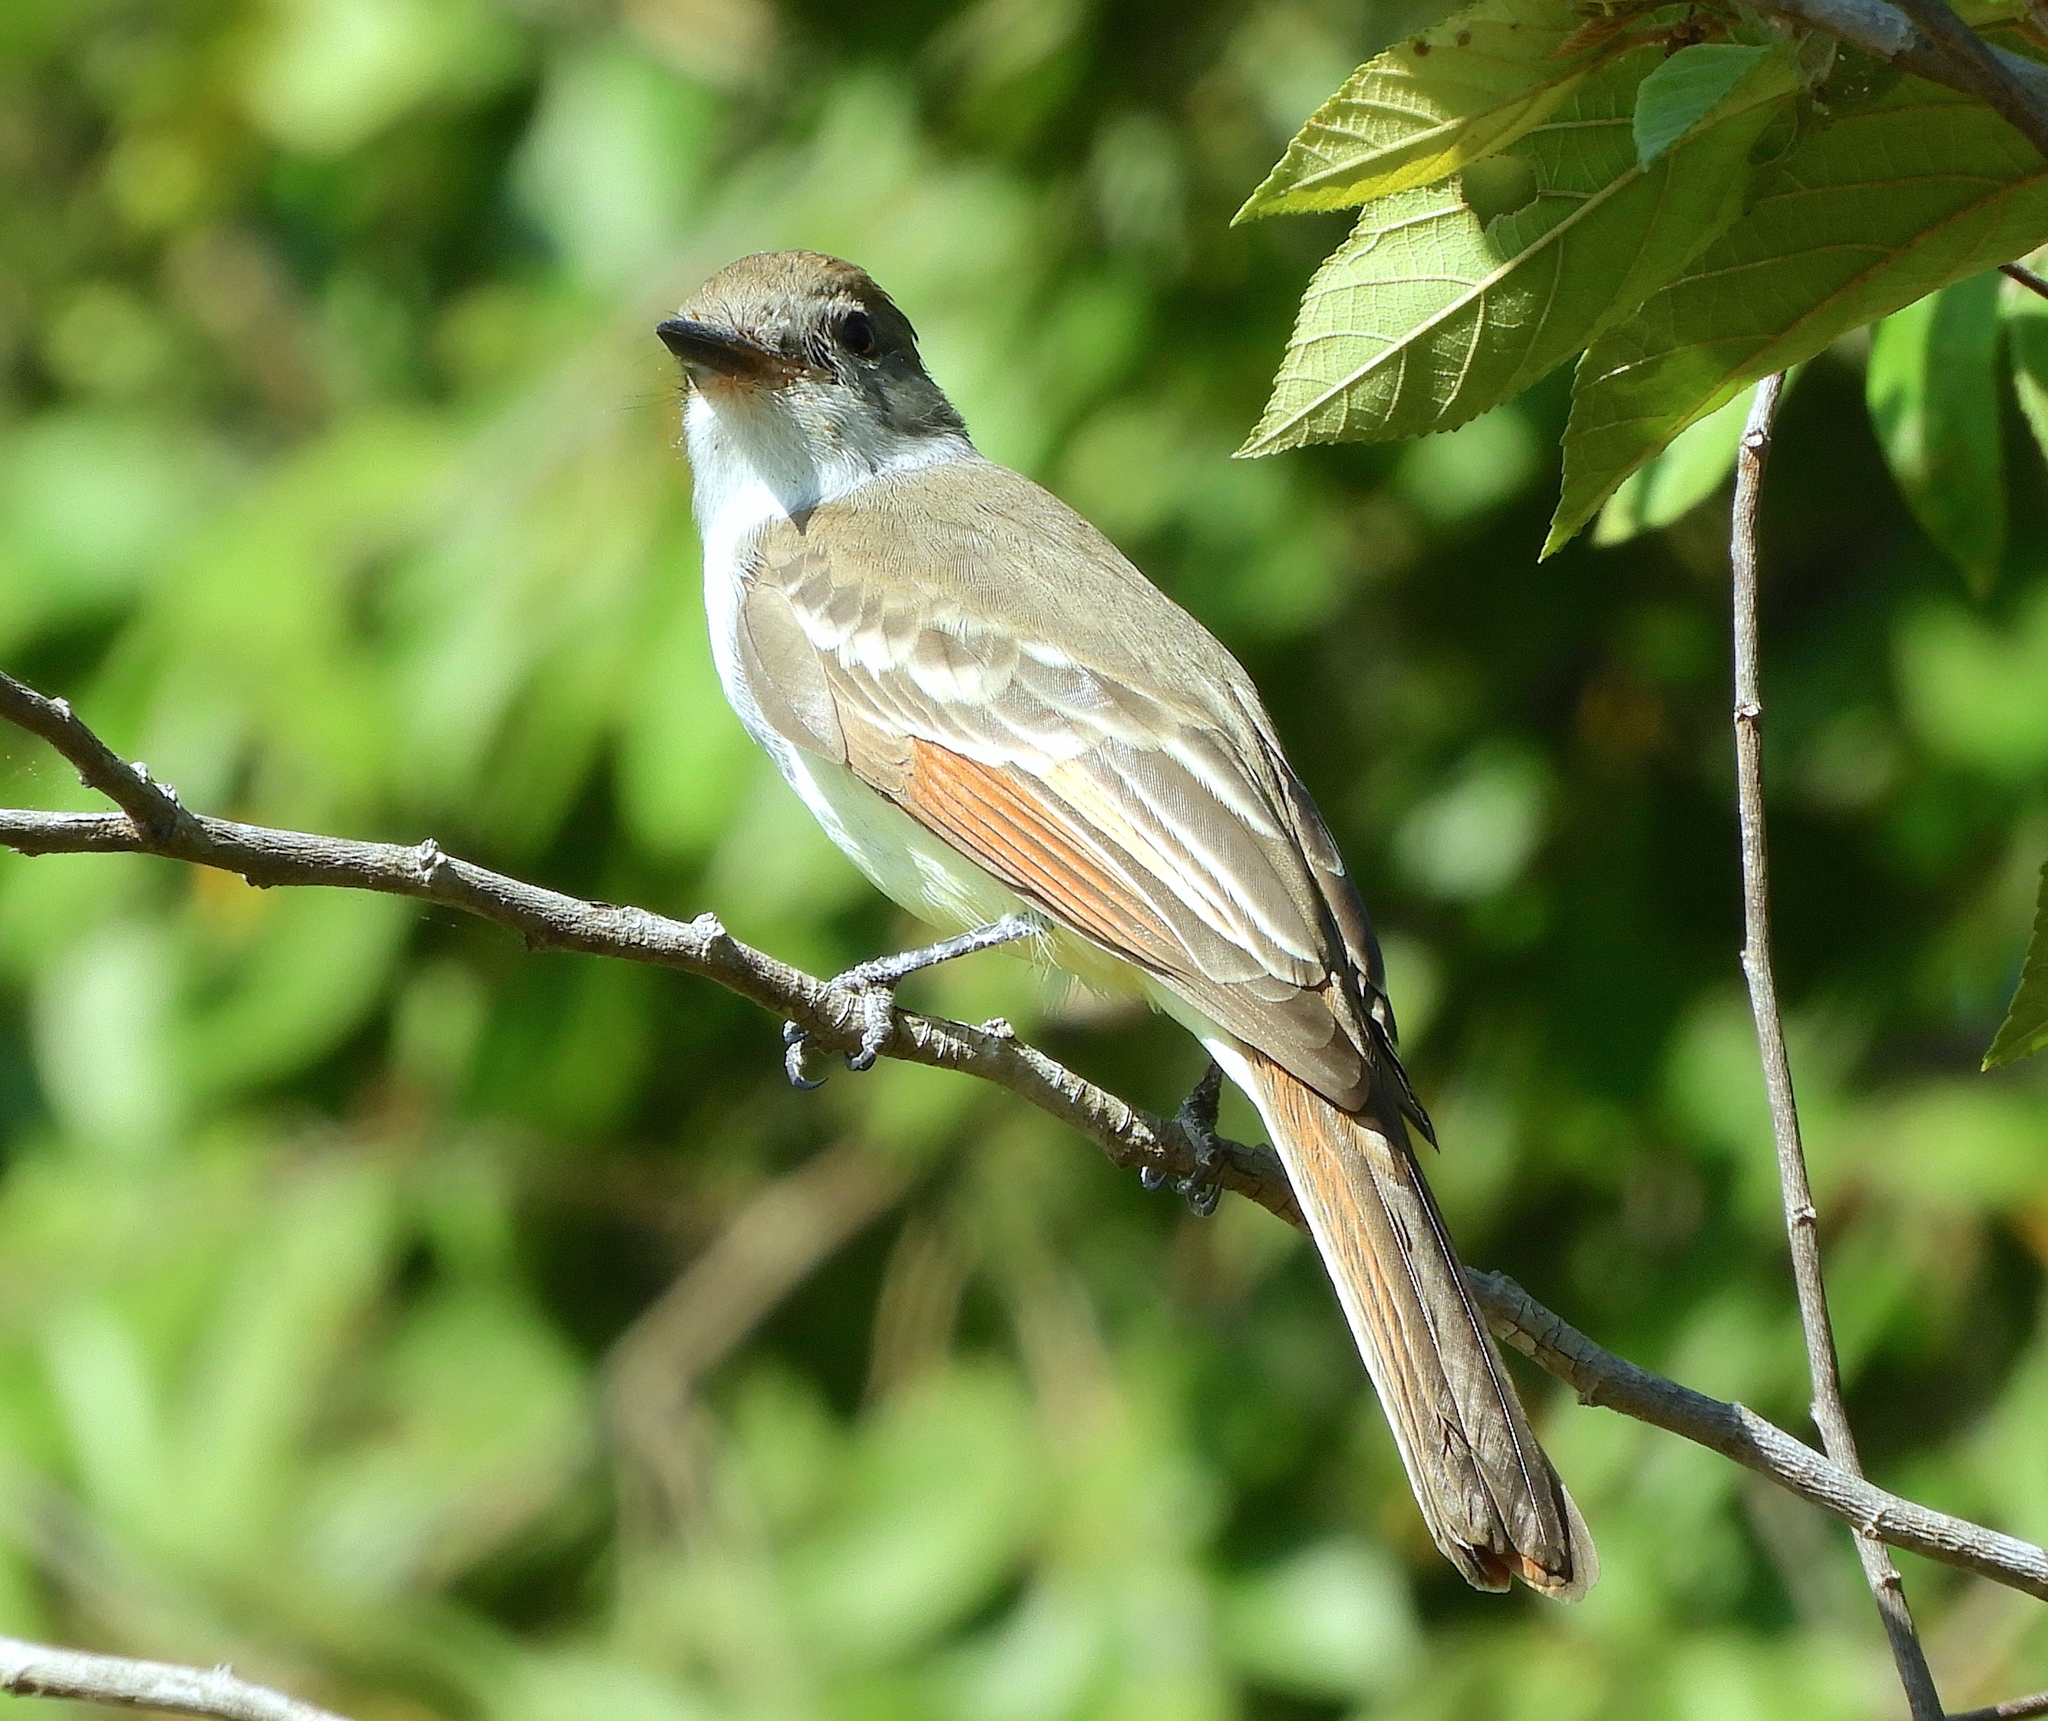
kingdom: Animalia
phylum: Chordata
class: Aves
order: Passeriformes
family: Tyrannidae
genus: Myiarchus
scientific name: Myiarchus cinerascens
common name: Ash-throated flycatcher
